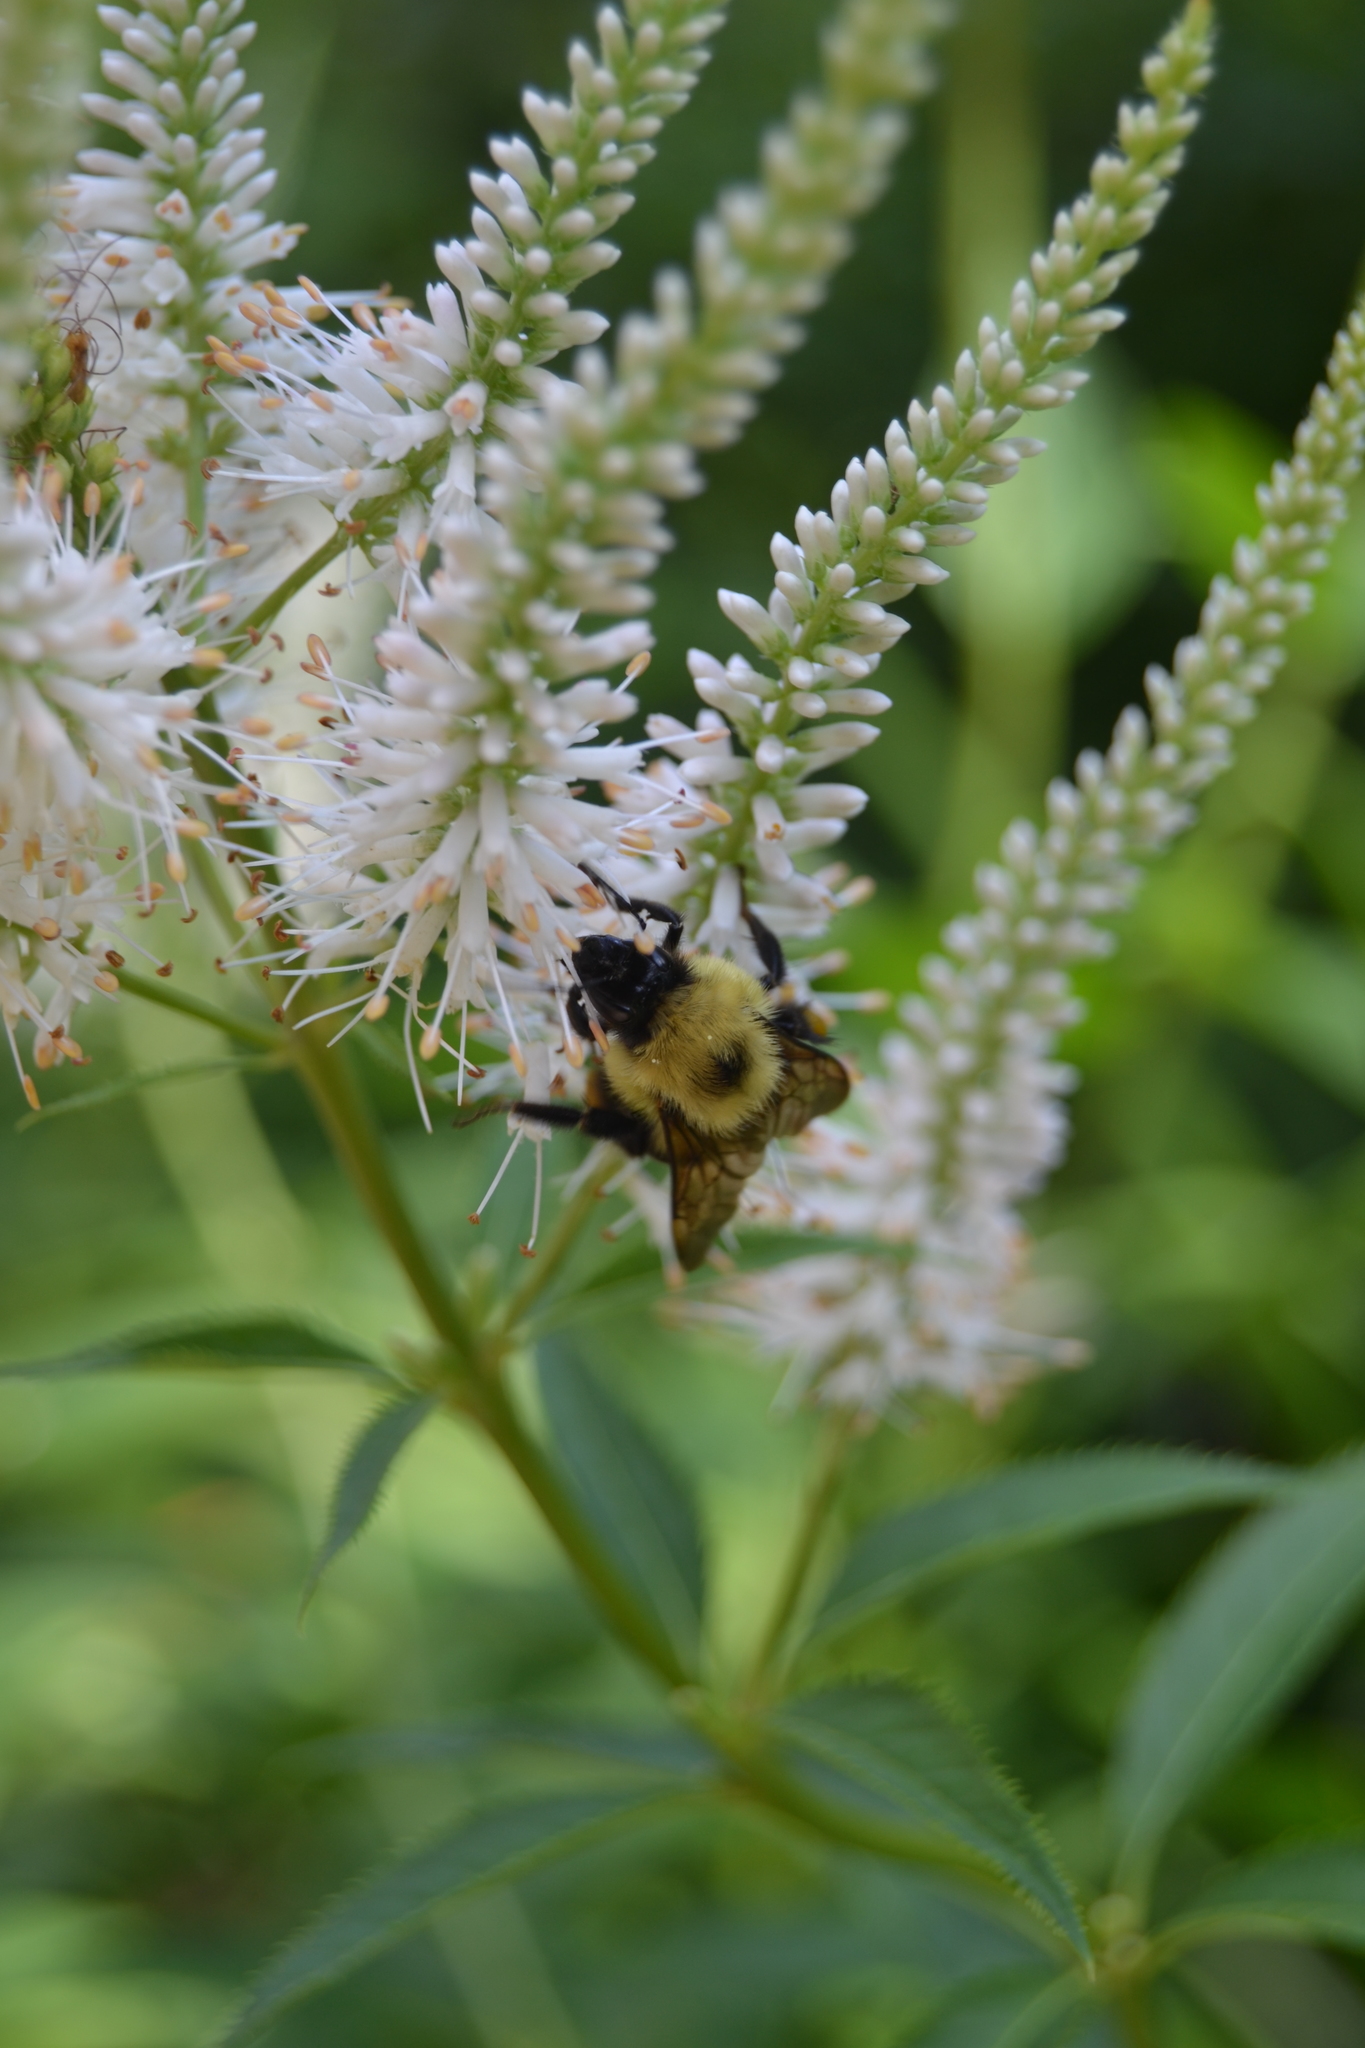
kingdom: Animalia
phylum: Arthropoda
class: Insecta
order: Hymenoptera
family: Apidae
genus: Bombus
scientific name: Bombus bimaculatus
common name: Two-spotted bumble bee
